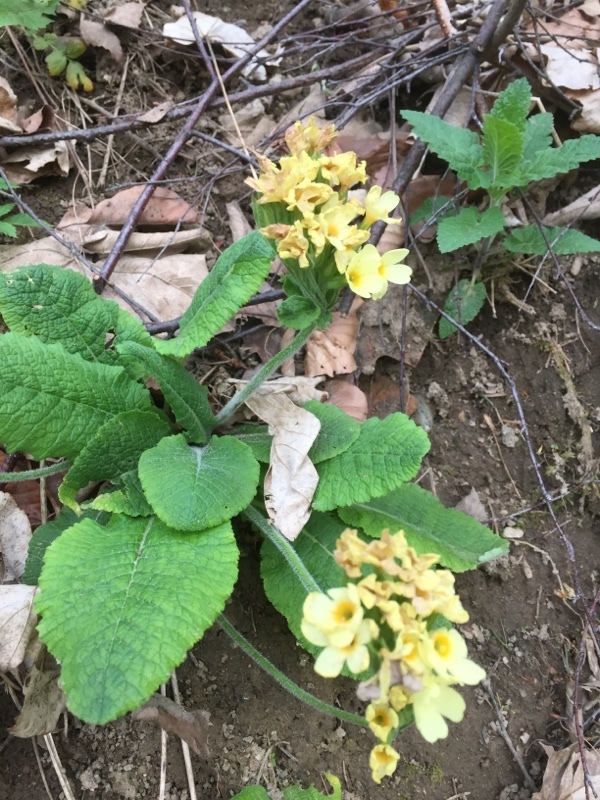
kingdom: Plantae
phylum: Tracheophyta
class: Magnoliopsida
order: Ericales
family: Primulaceae
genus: Primula
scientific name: Primula elatior
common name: Oxlip
